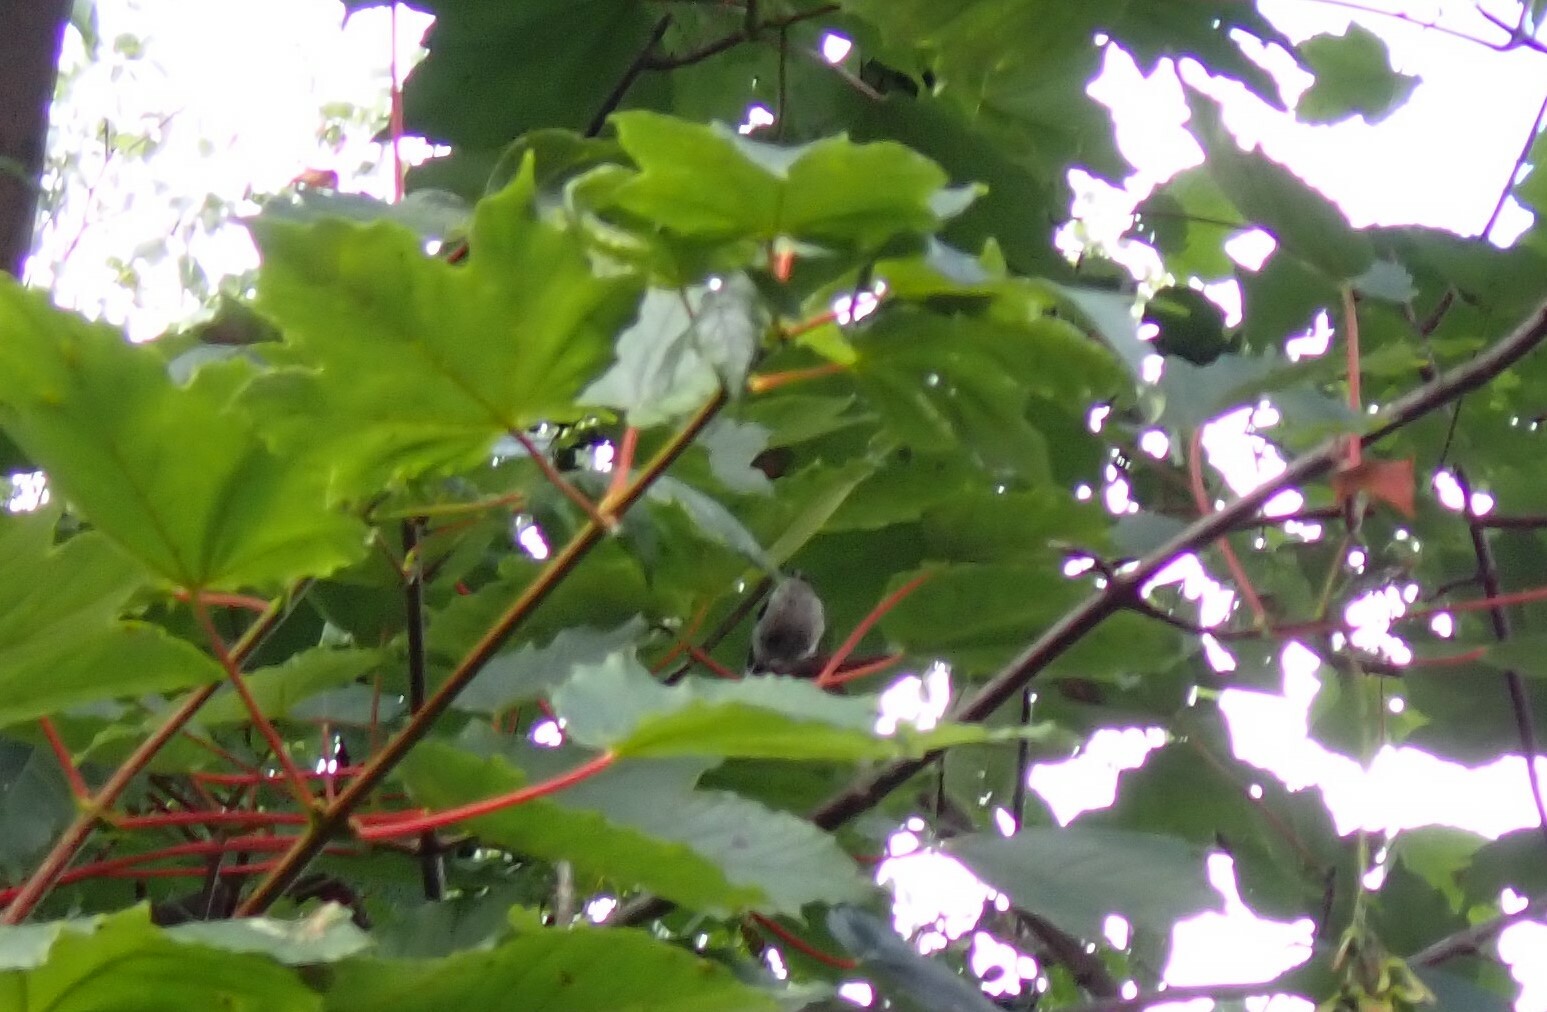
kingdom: Animalia
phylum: Chordata
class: Aves
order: Passeriformes
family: Aegithalidae
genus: Aegithalos
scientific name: Aegithalos caudatus
